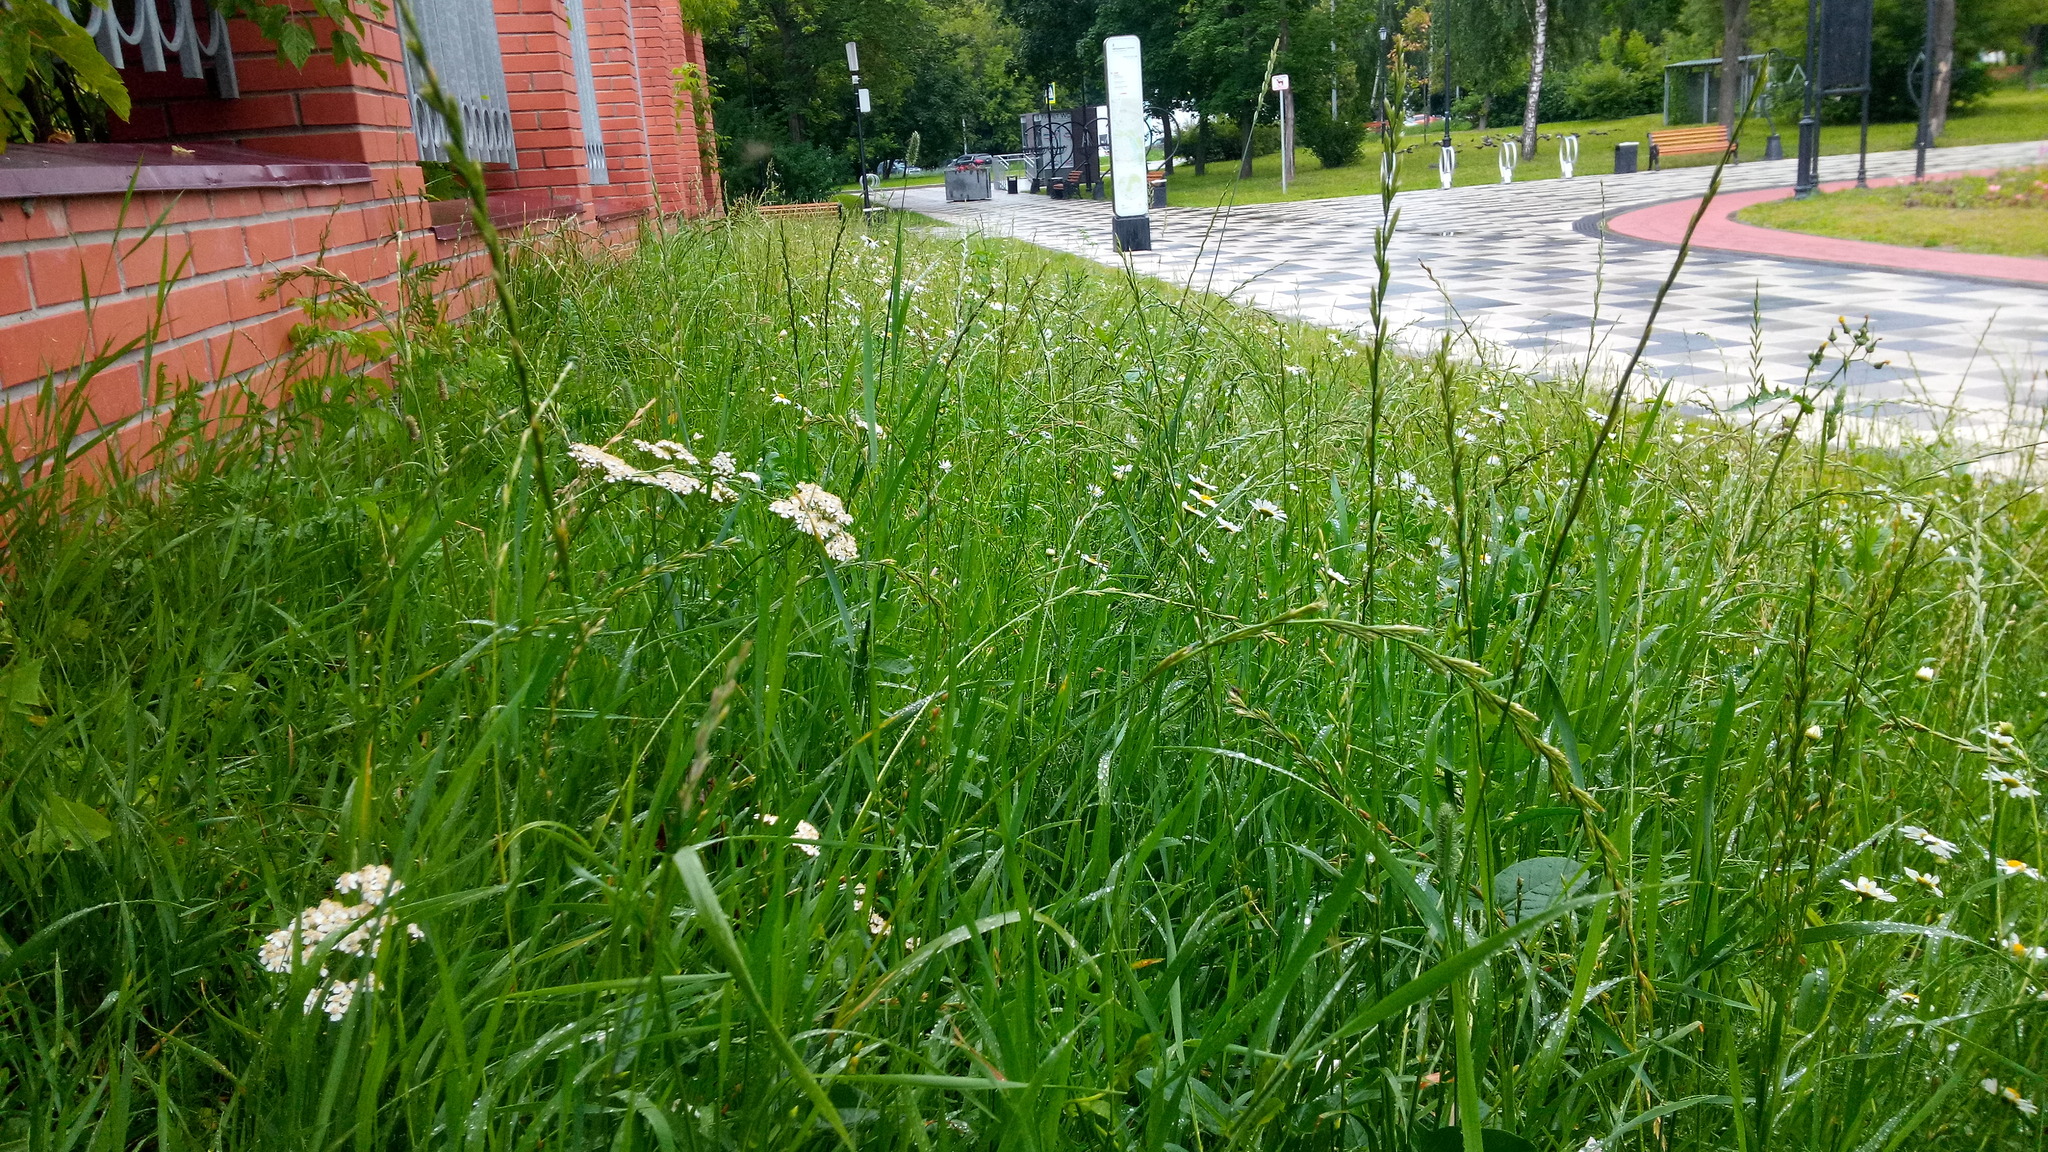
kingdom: Plantae
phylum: Tracheophyta
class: Magnoliopsida
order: Asterales
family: Asteraceae
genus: Achillea
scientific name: Achillea millefolium
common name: Yarrow
